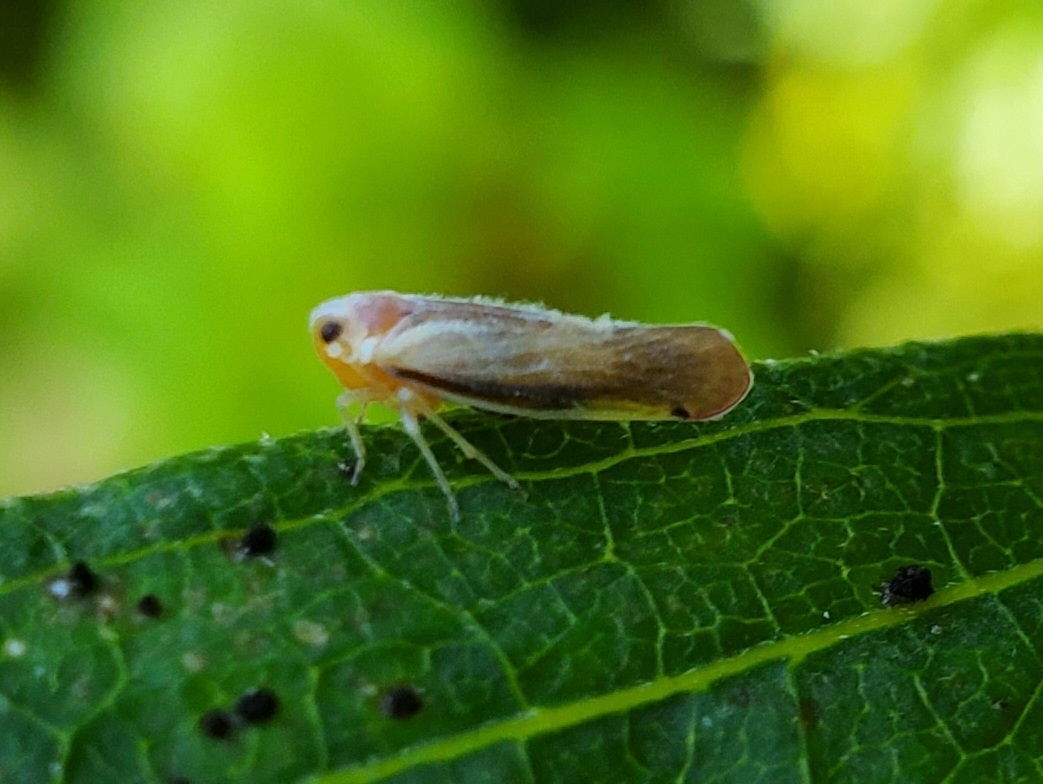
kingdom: Animalia
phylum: Arthropoda
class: Insecta
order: Hemiptera
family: Derbidae
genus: Omolicna
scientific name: Omolicna uhleri
